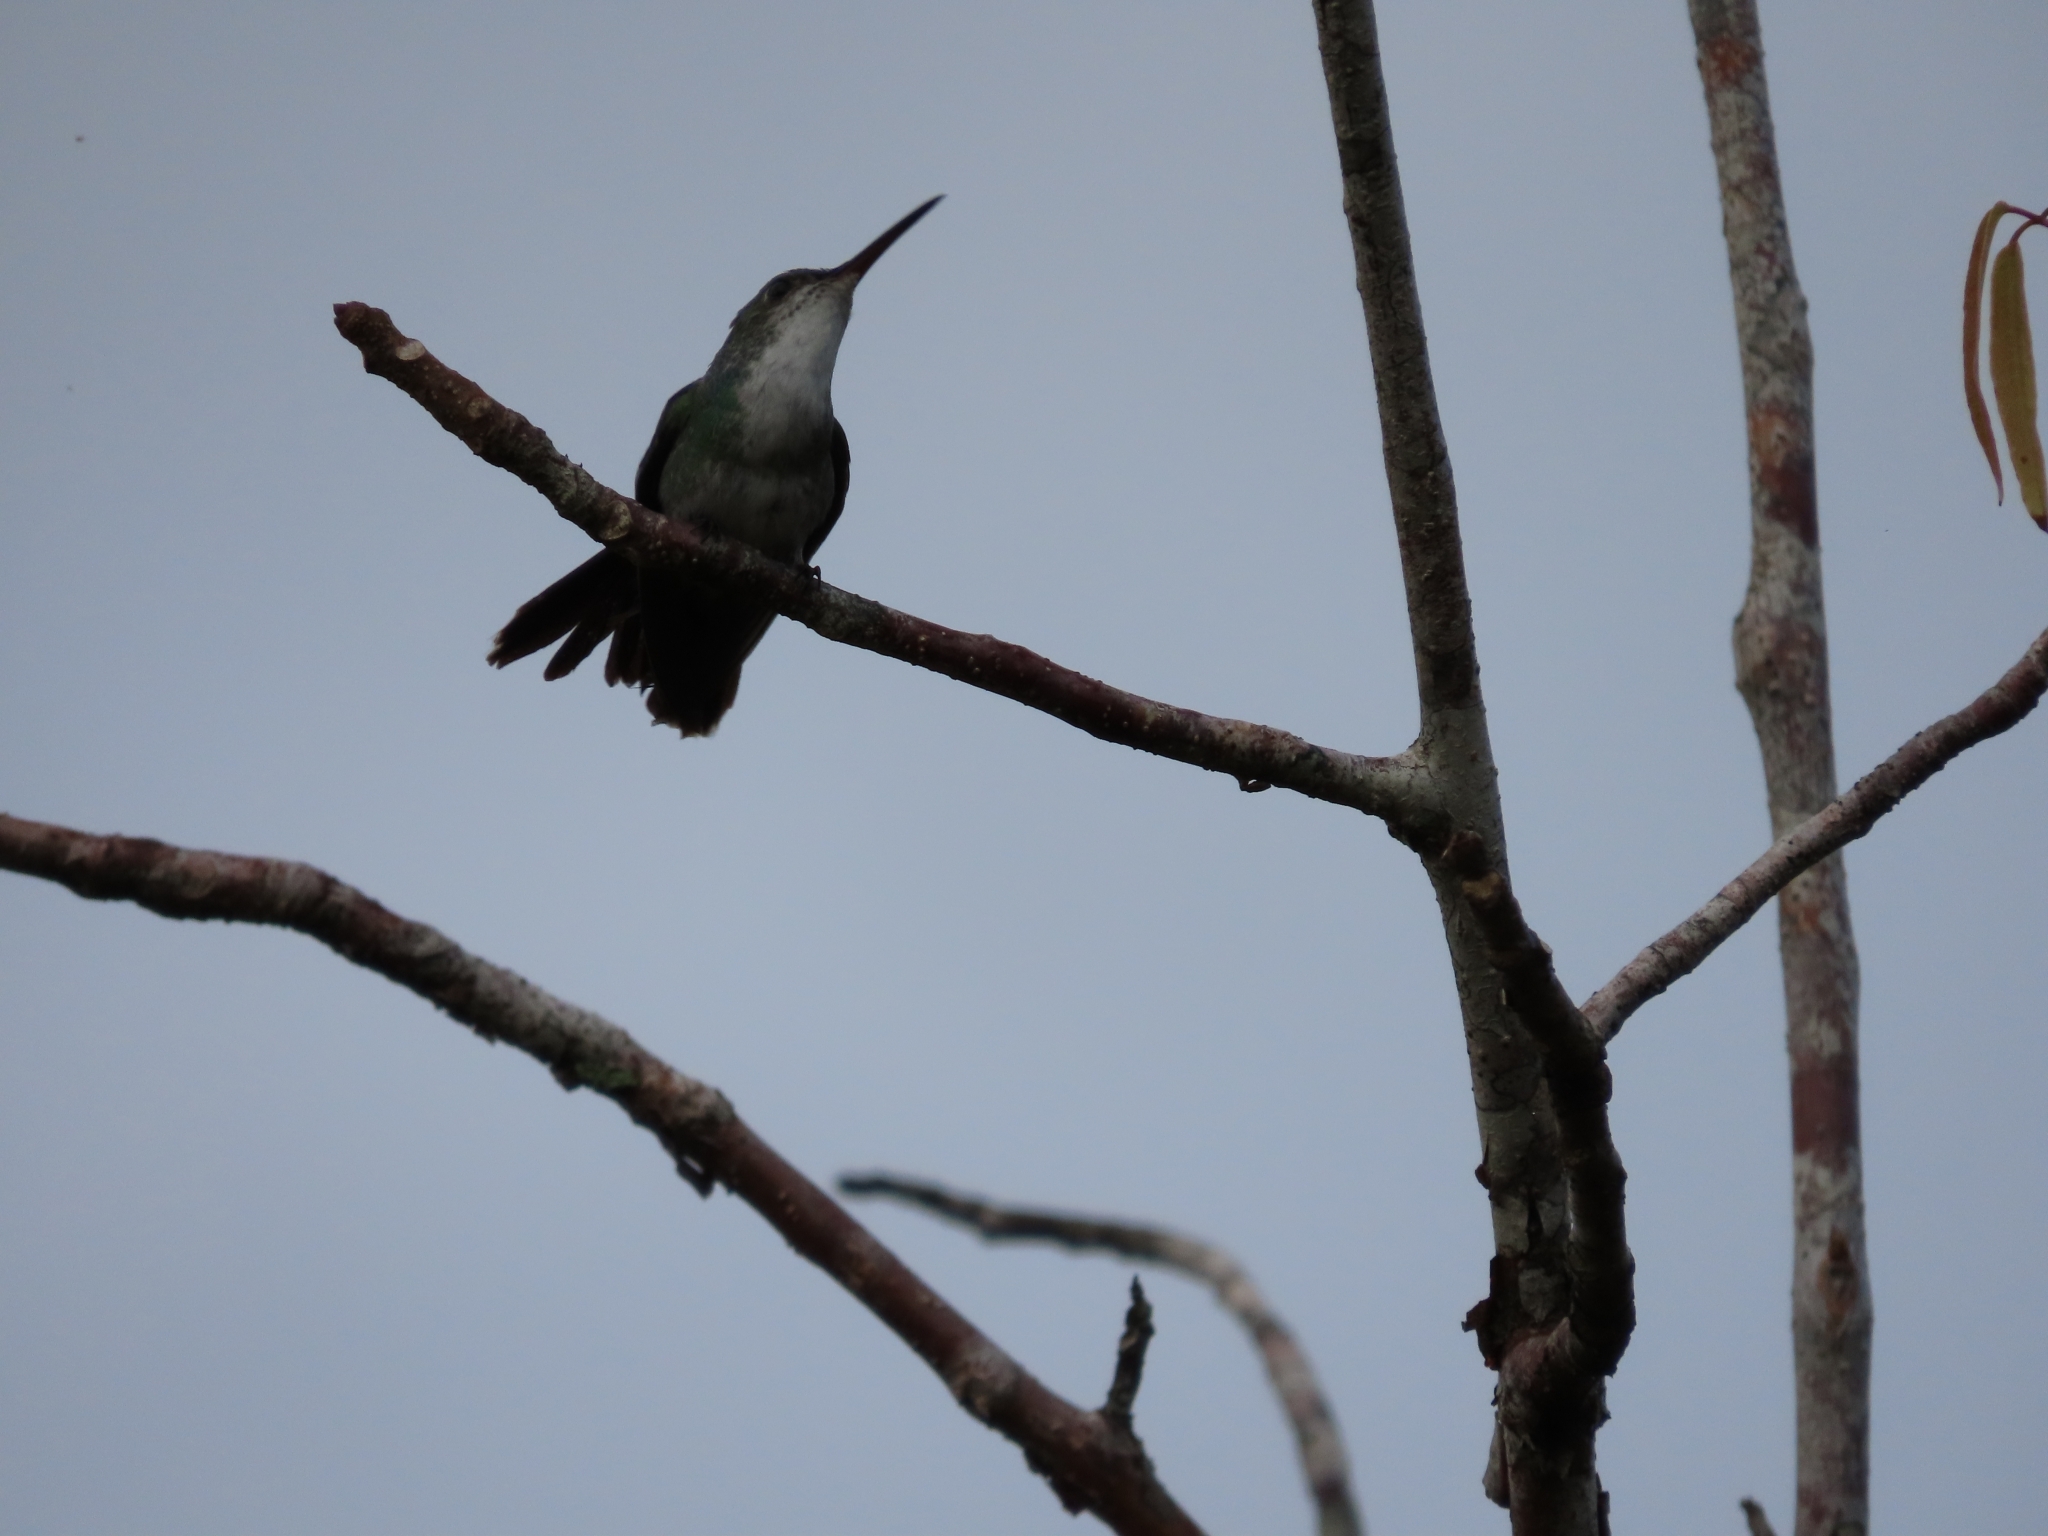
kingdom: Animalia
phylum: Chordata
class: Aves
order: Apodiformes
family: Trochilidae
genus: Chrysuronia
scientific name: Chrysuronia coeruleogularis
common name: Sapphire-throated hummingbird
